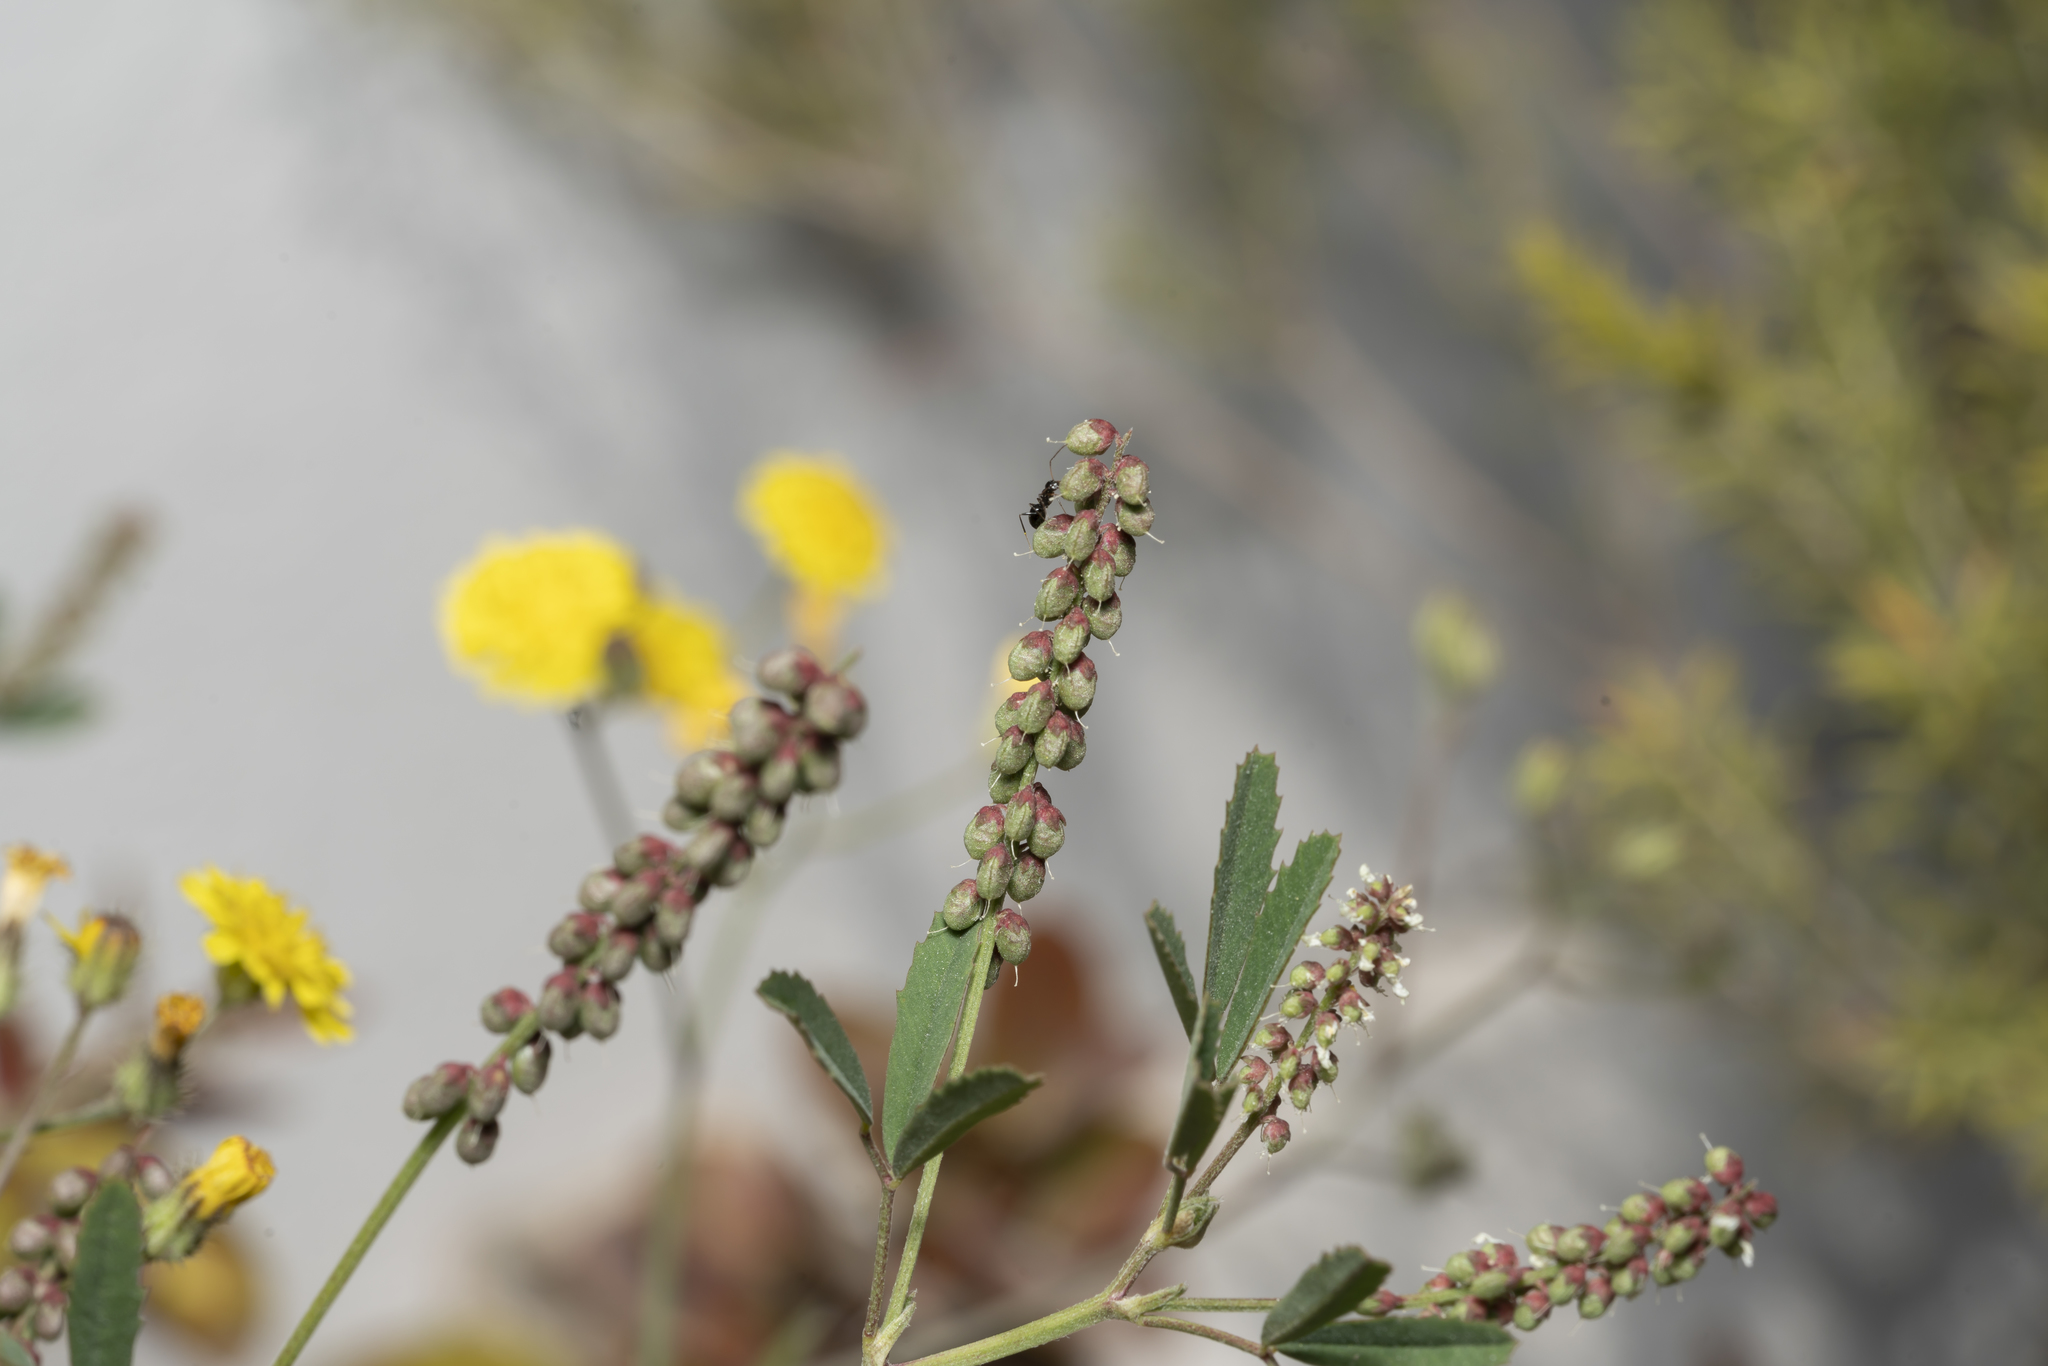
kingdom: Plantae
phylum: Tracheophyta
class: Magnoliopsida
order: Fabales
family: Fabaceae
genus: Melilotus
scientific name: Melilotus indicus
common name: Small melilot
